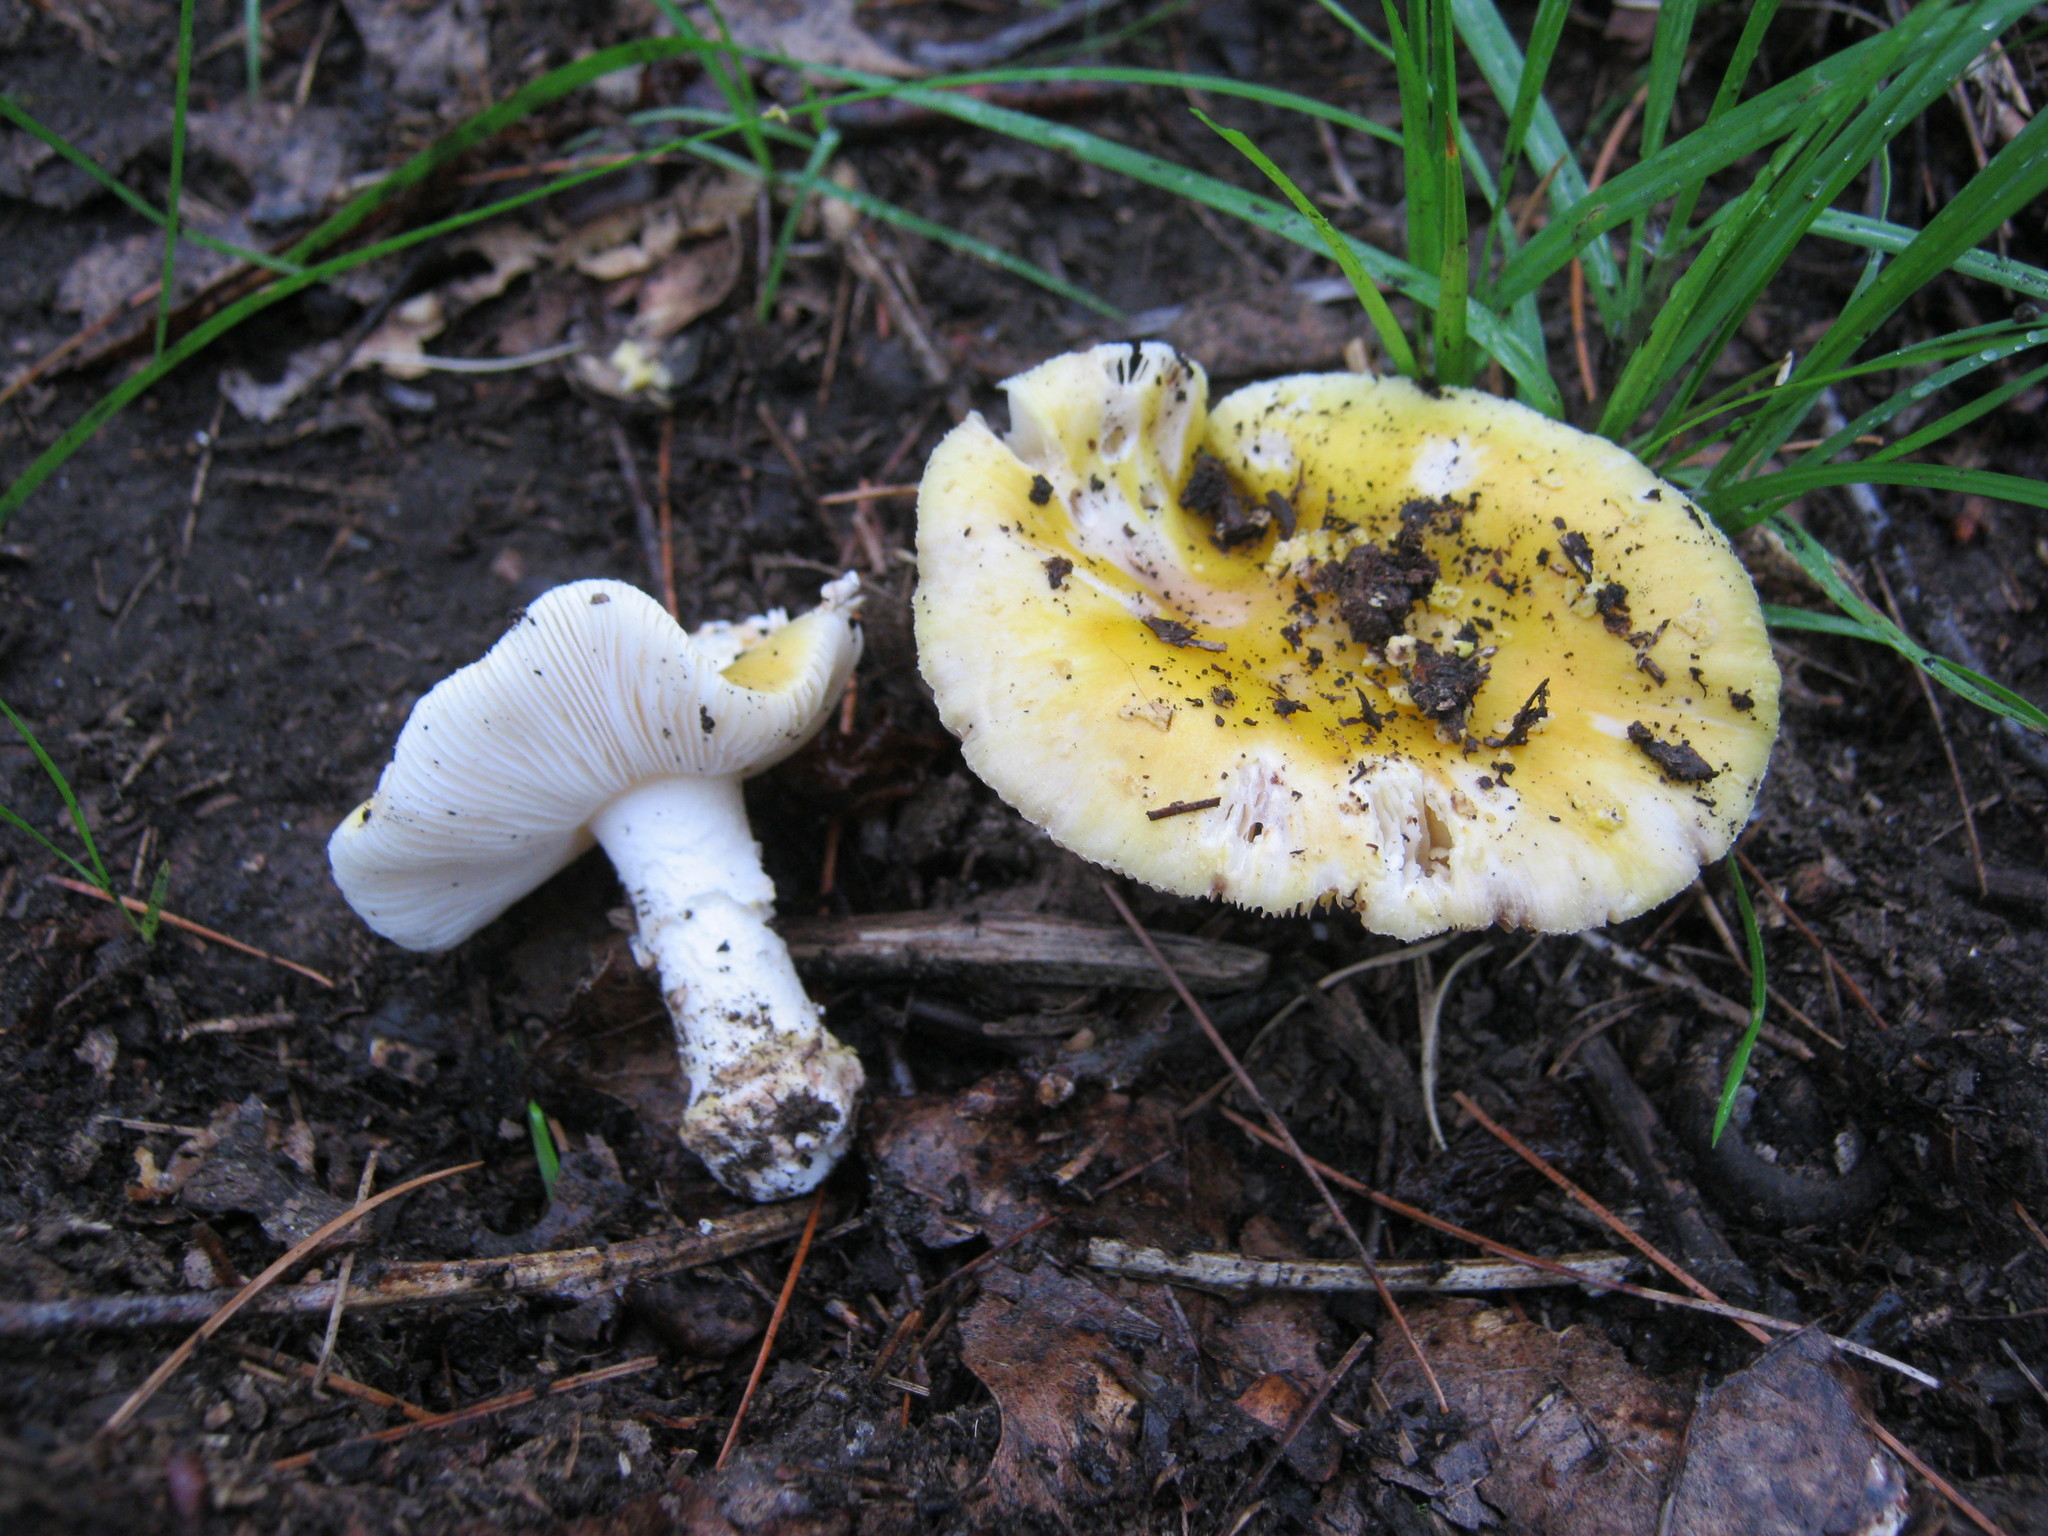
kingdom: Fungi
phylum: Basidiomycota
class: Agaricomycetes
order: Agaricales
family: Amanitaceae
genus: Amanita
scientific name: Amanita flavorubens
